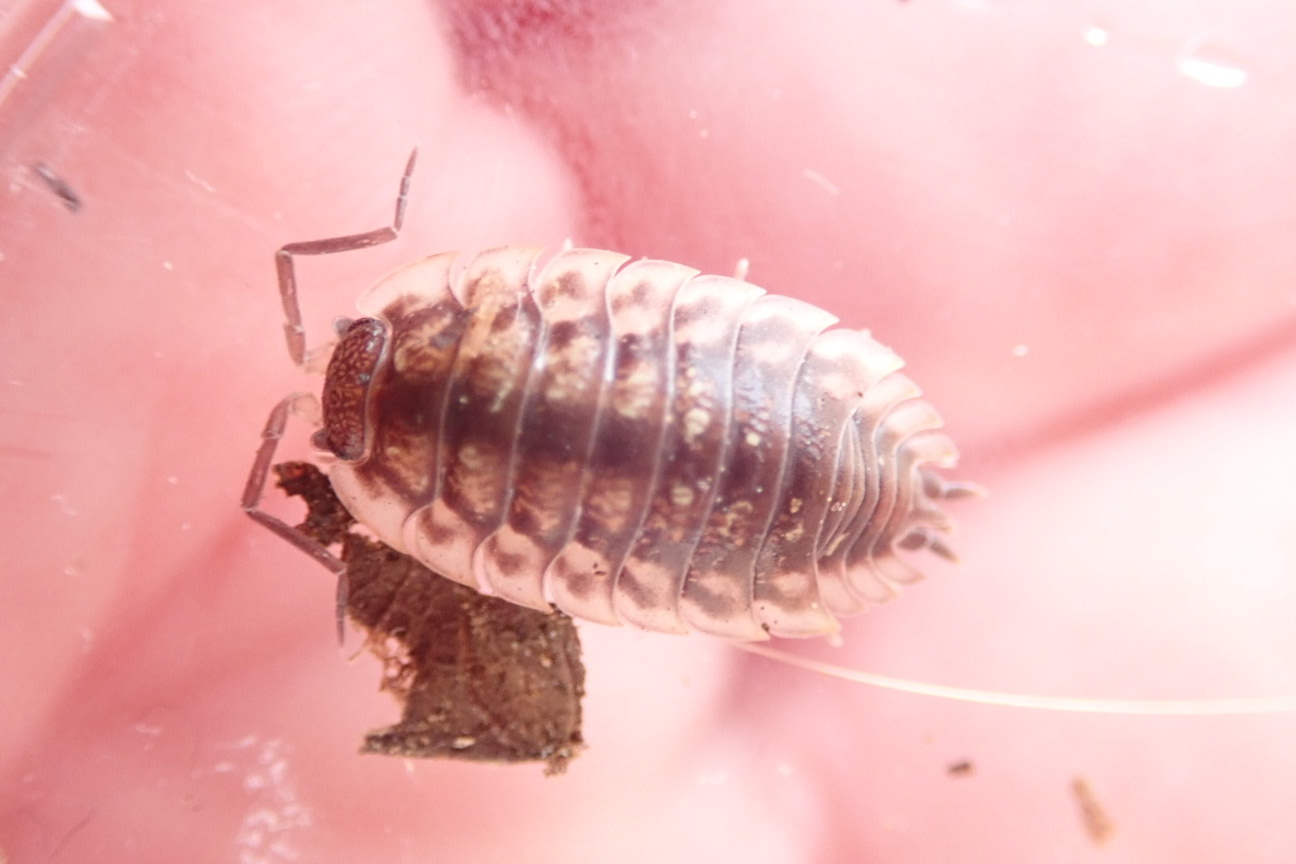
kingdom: Animalia
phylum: Arthropoda
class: Malacostraca
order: Isopoda
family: Oniscidae
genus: Oniscus
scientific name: Oniscus asellus
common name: Common shiny woodlouse
